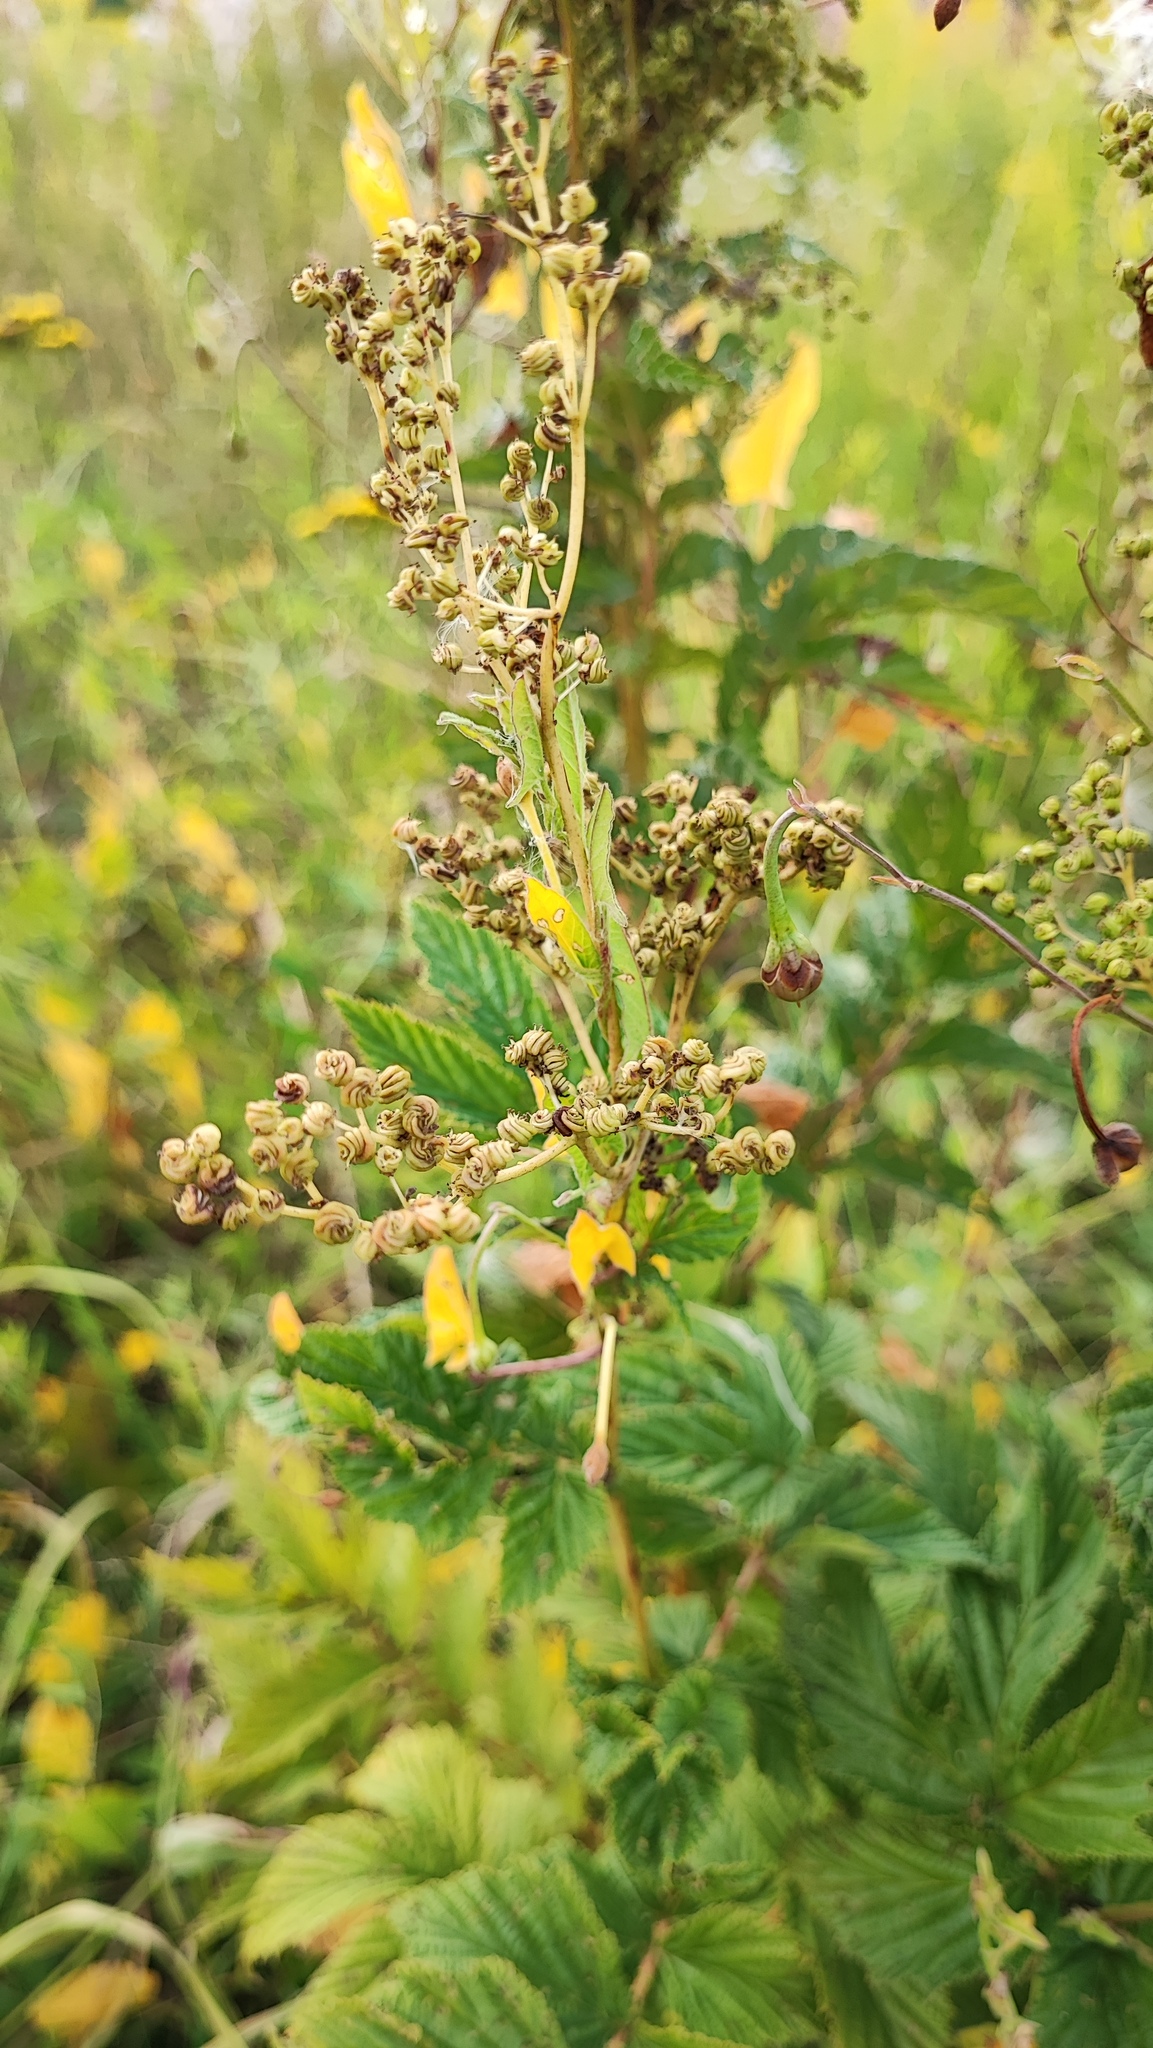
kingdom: Plantae
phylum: Tracheophyta
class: Magnoliopsida
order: Rosales
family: Rosaceae
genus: Filipendula
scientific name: Filipendula ulmaria
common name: Meadowsweet
